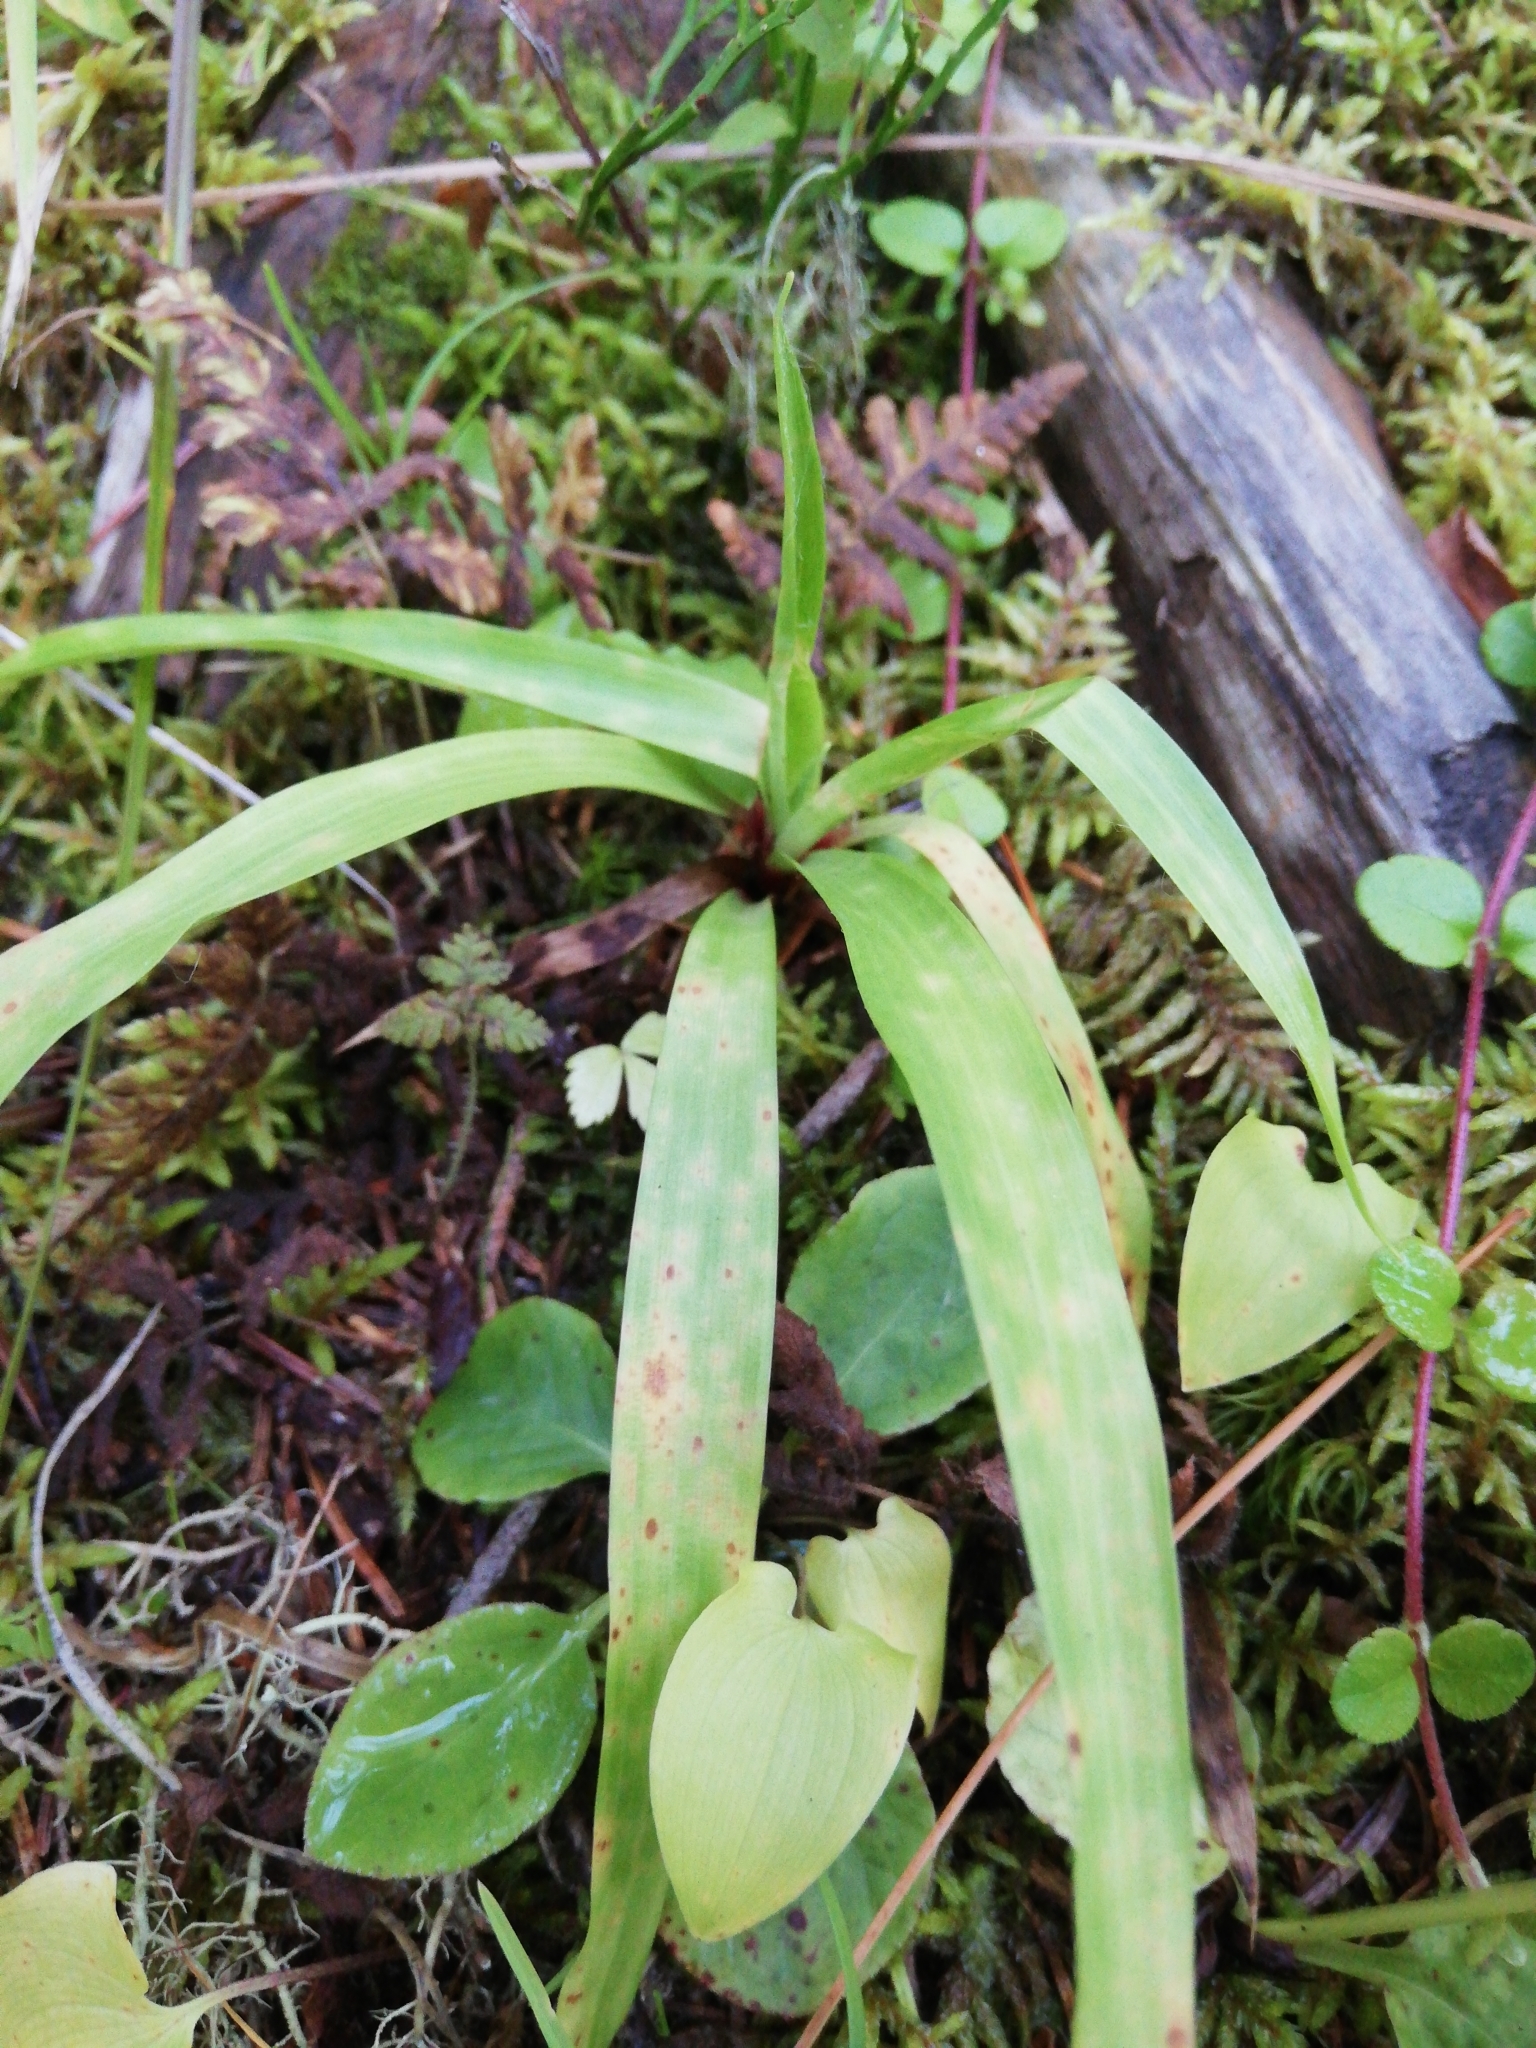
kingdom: Plantae
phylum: Tracheophyta
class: Liliopsida
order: Poales
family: Juncaceae
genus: Luzula
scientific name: Luzula pilosa
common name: Hairy wood-rush
